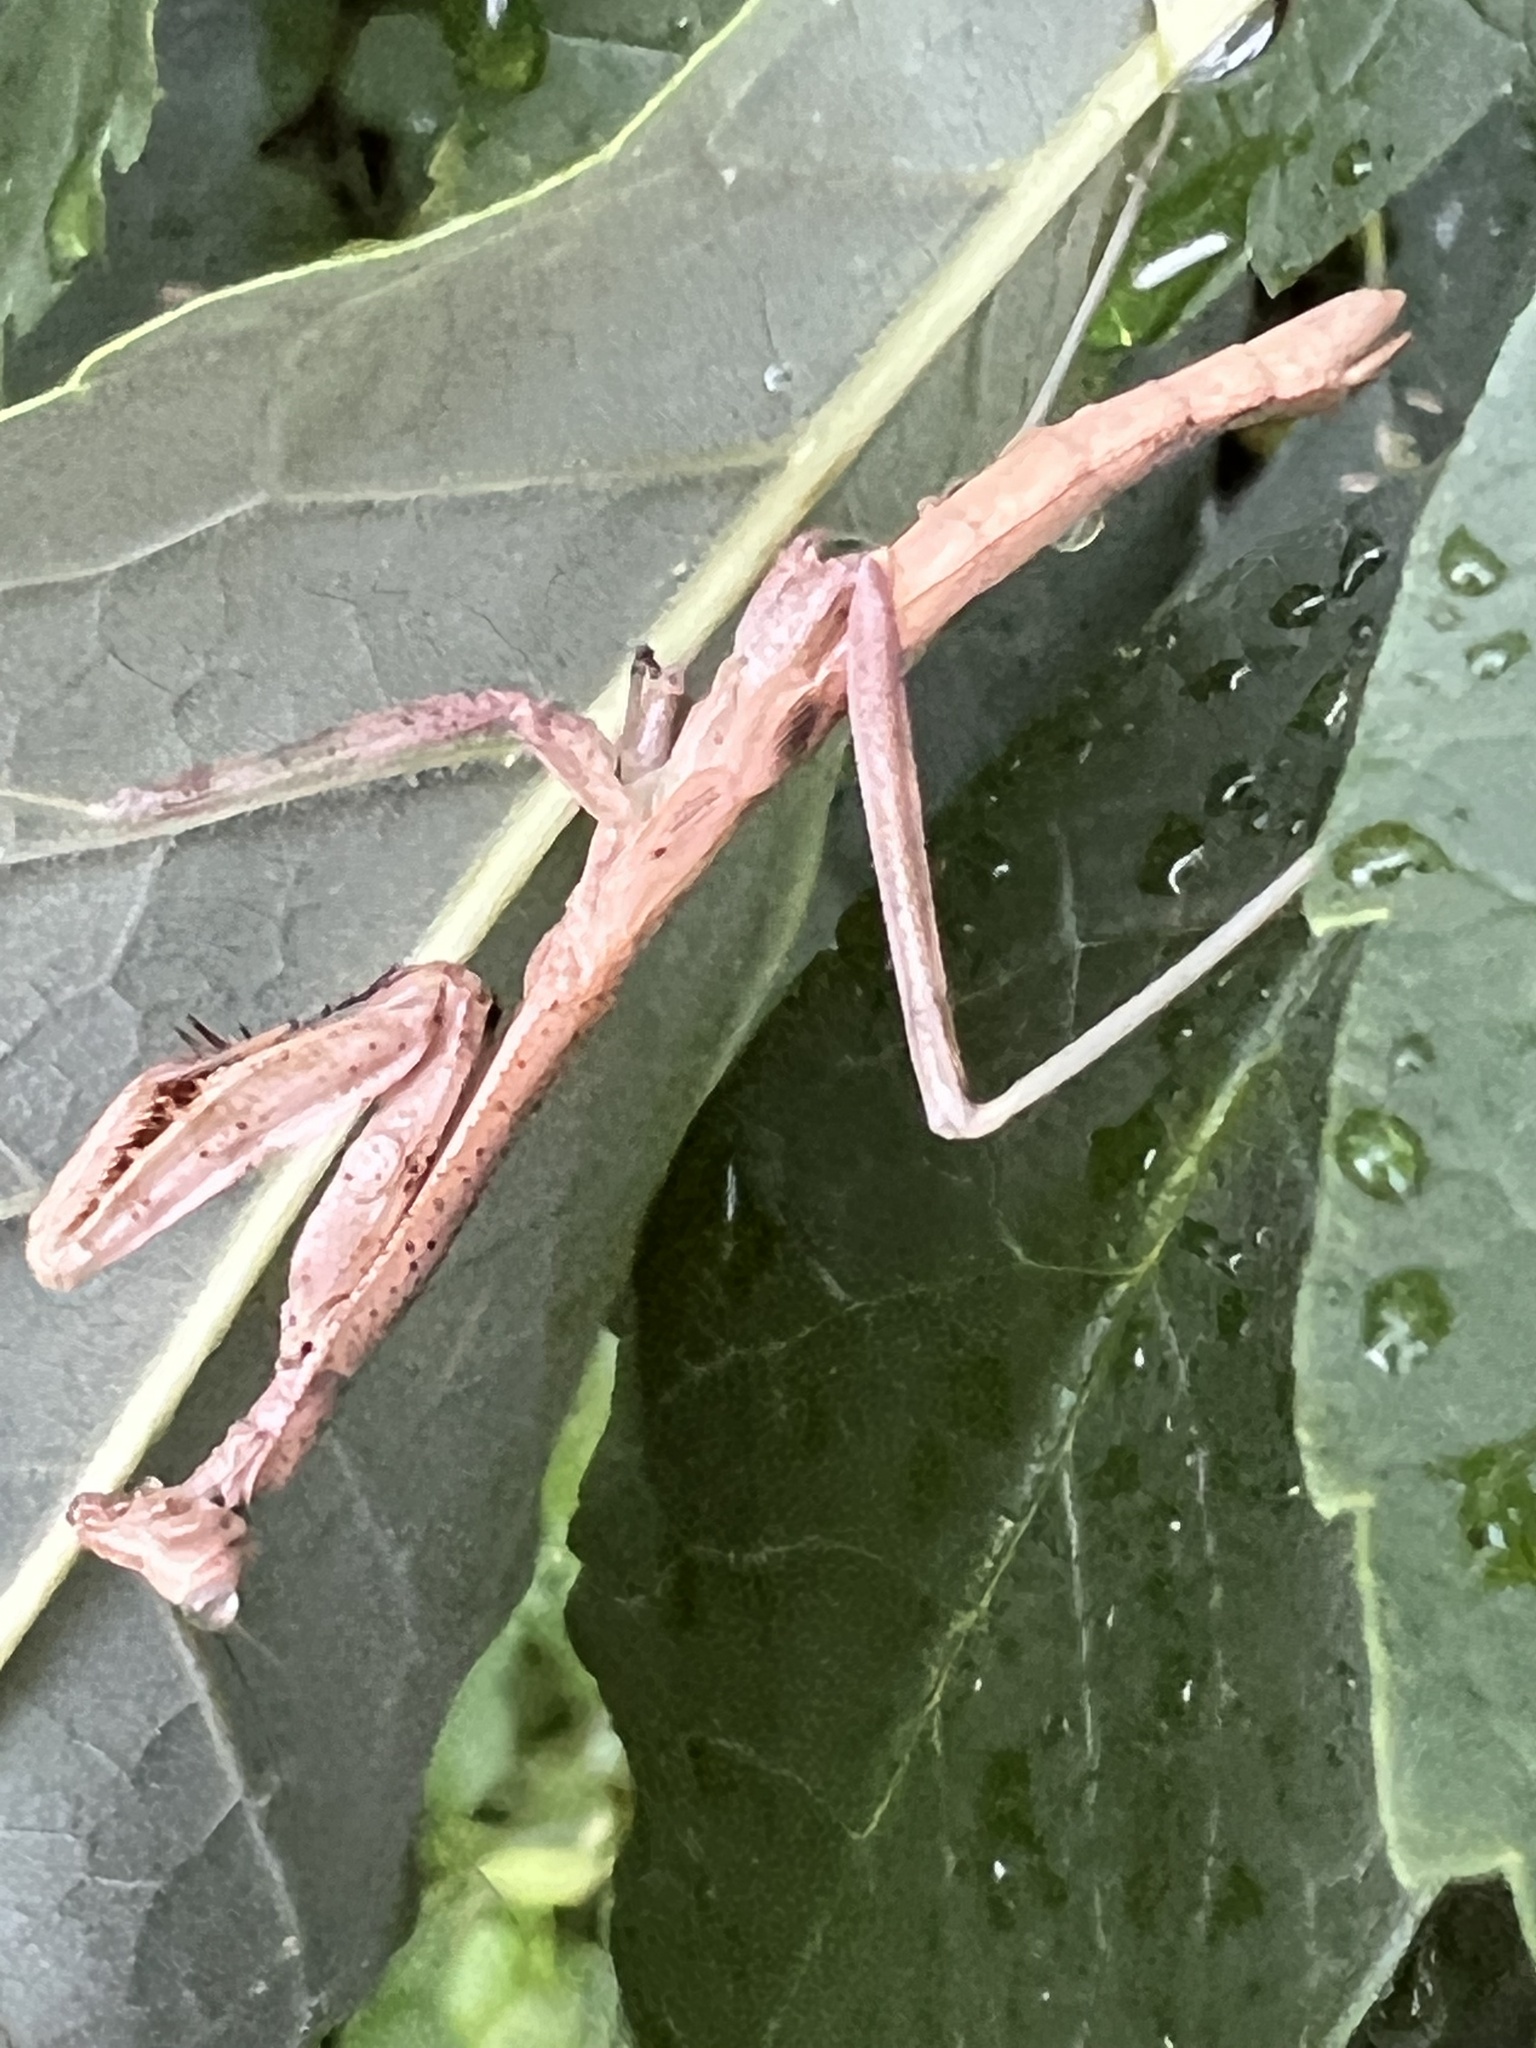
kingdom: Animalia
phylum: Arthropoda
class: Insecta
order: Mantodea
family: Mantidae
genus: Stagmomantis
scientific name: Stagmomantis carolina
